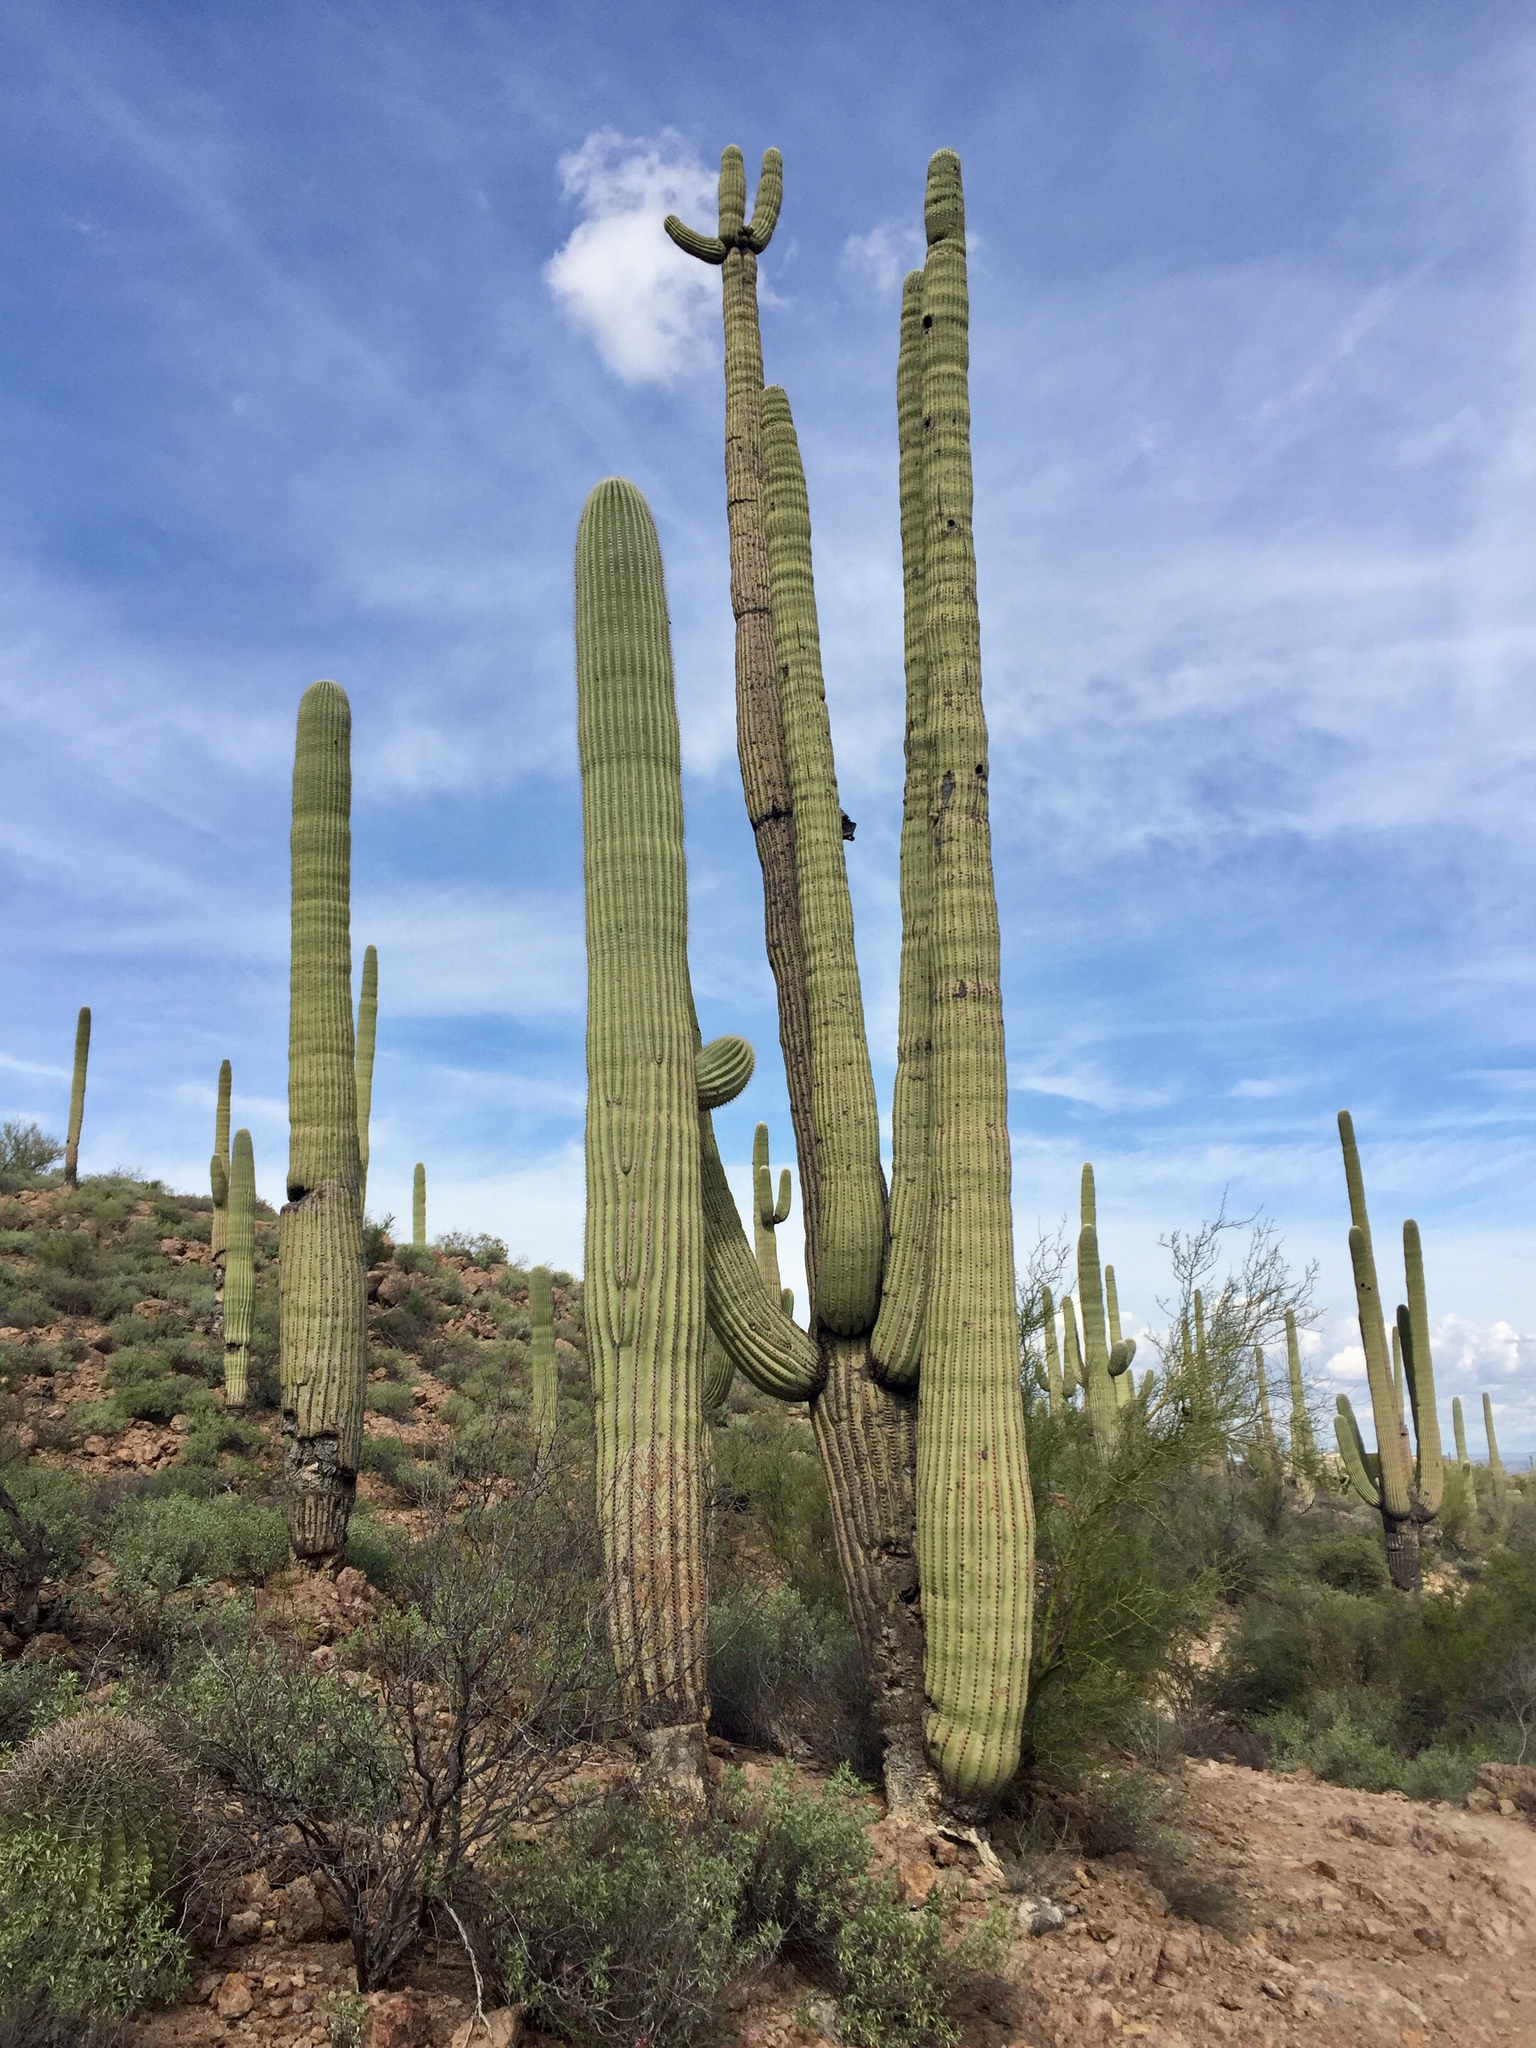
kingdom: Plantae
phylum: Tracheophyta
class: Magnoliopsida
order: Caryophyllales
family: Cactaceae
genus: Carnegiea
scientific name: Carnegiea gigantea
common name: Saguaro
